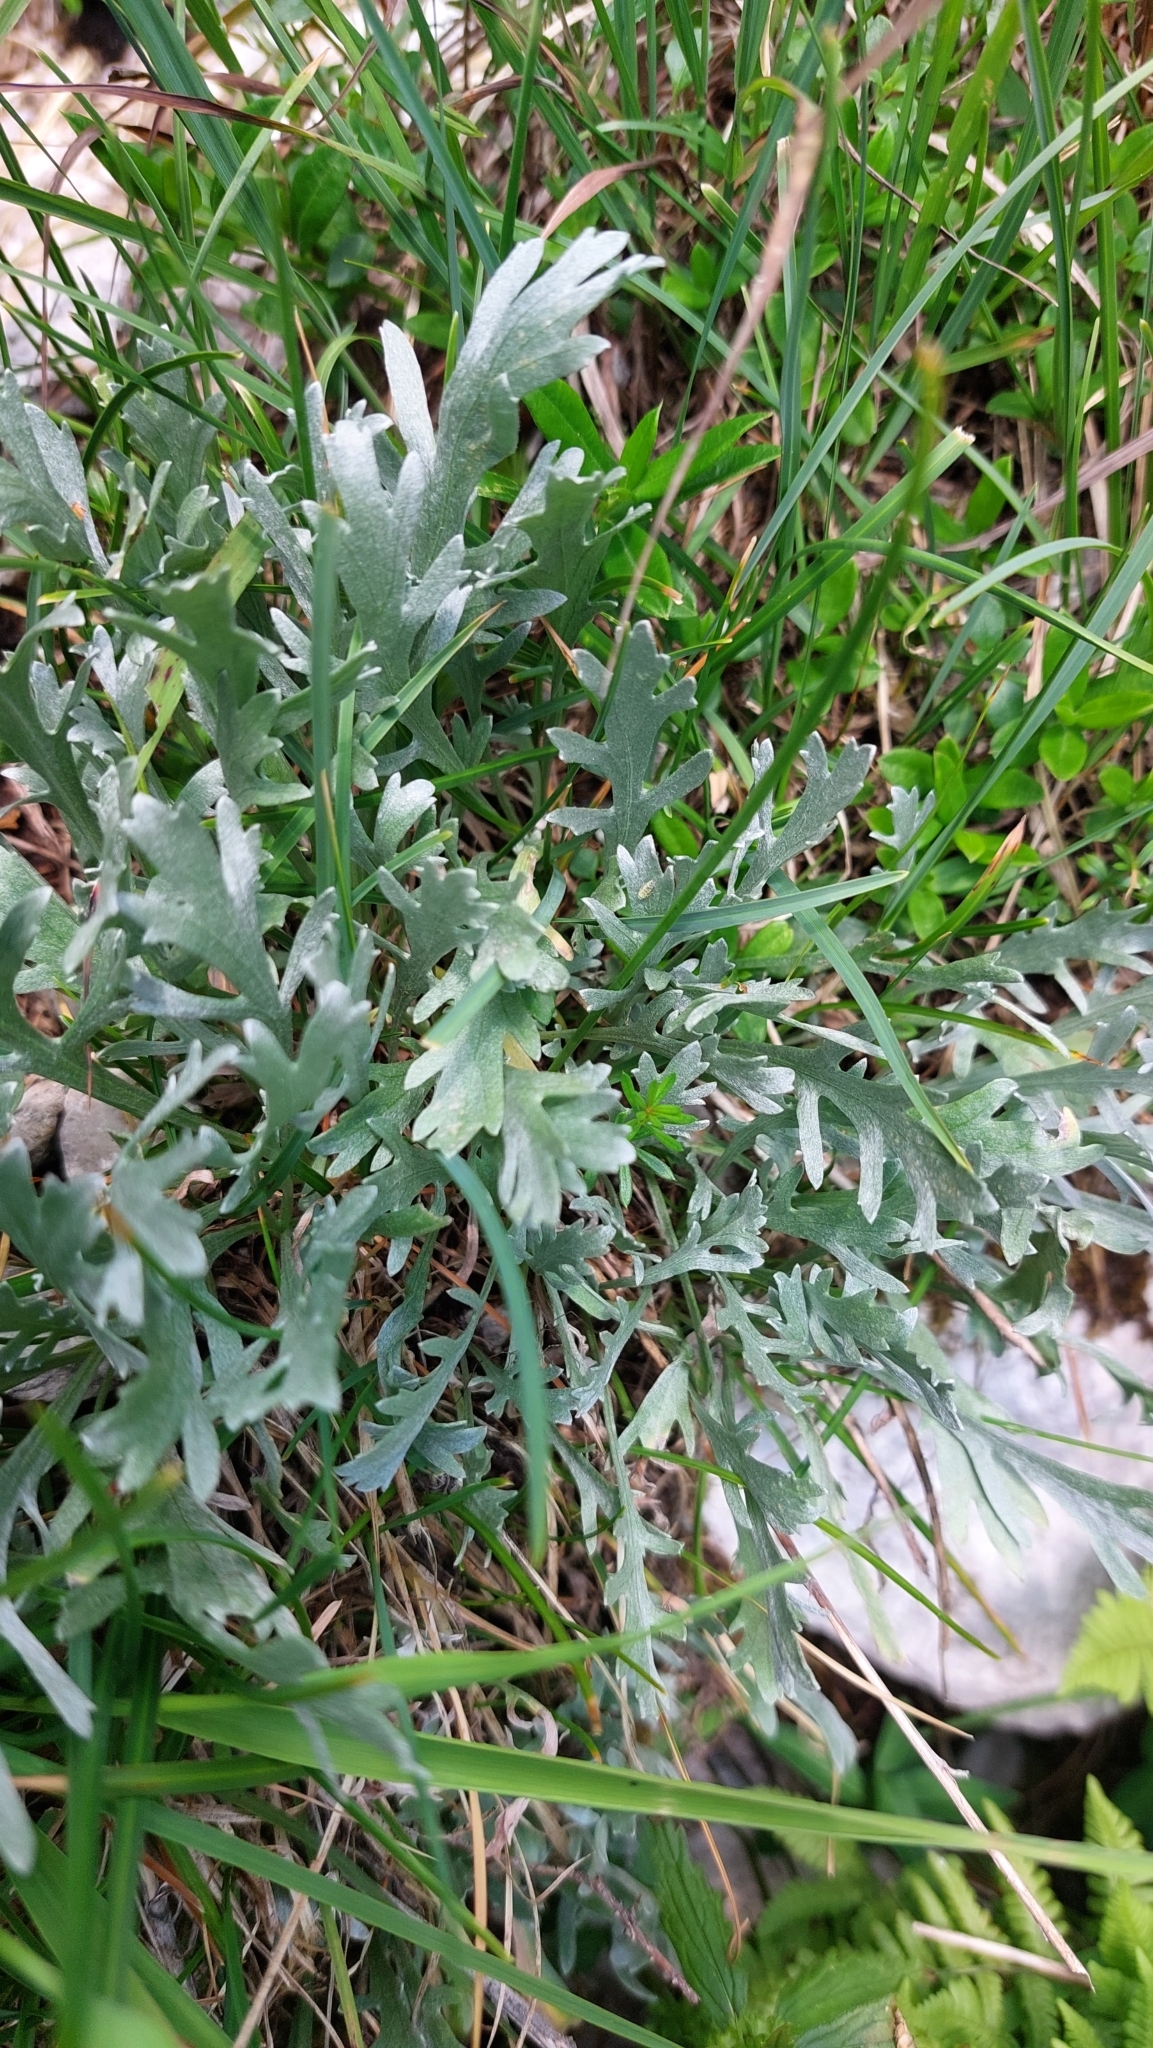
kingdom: Plantae
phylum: Tracheophyta
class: Magnoliopsida
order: Asterales
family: Asteraceae
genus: Achillea
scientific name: Achillea clavennae
